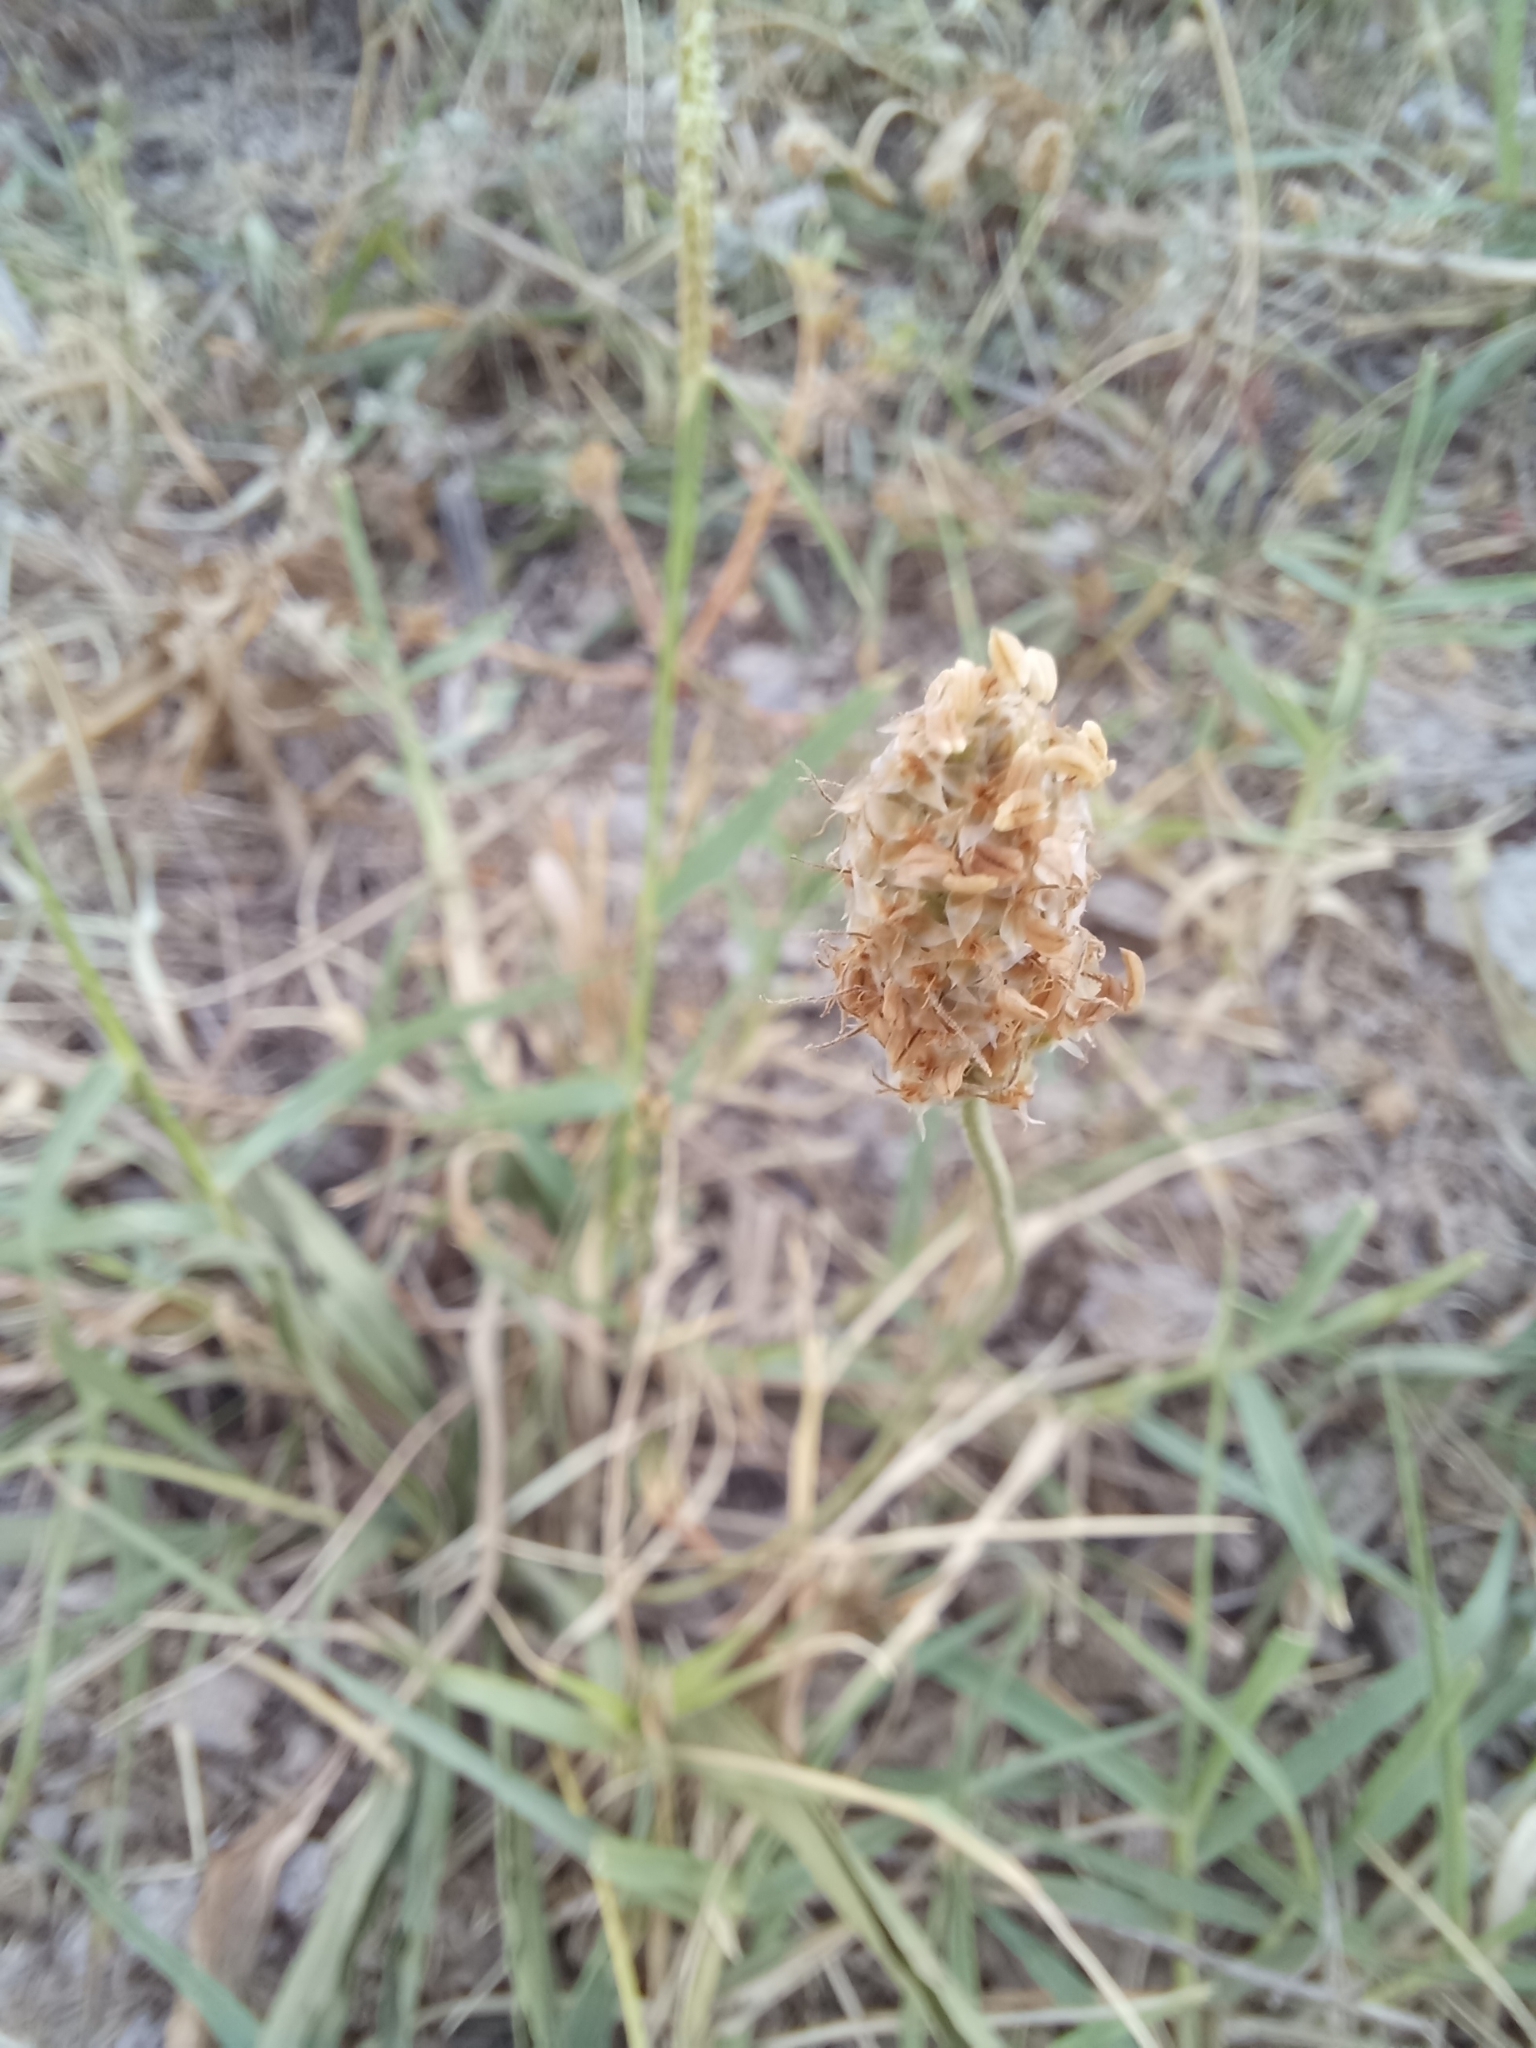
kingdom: Plantae
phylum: Tracheophyta
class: Magnoliopsida
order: Lamiales
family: Plantaginaceae
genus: Plantago
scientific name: Plantago lanceolata
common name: Ribwort plantain
